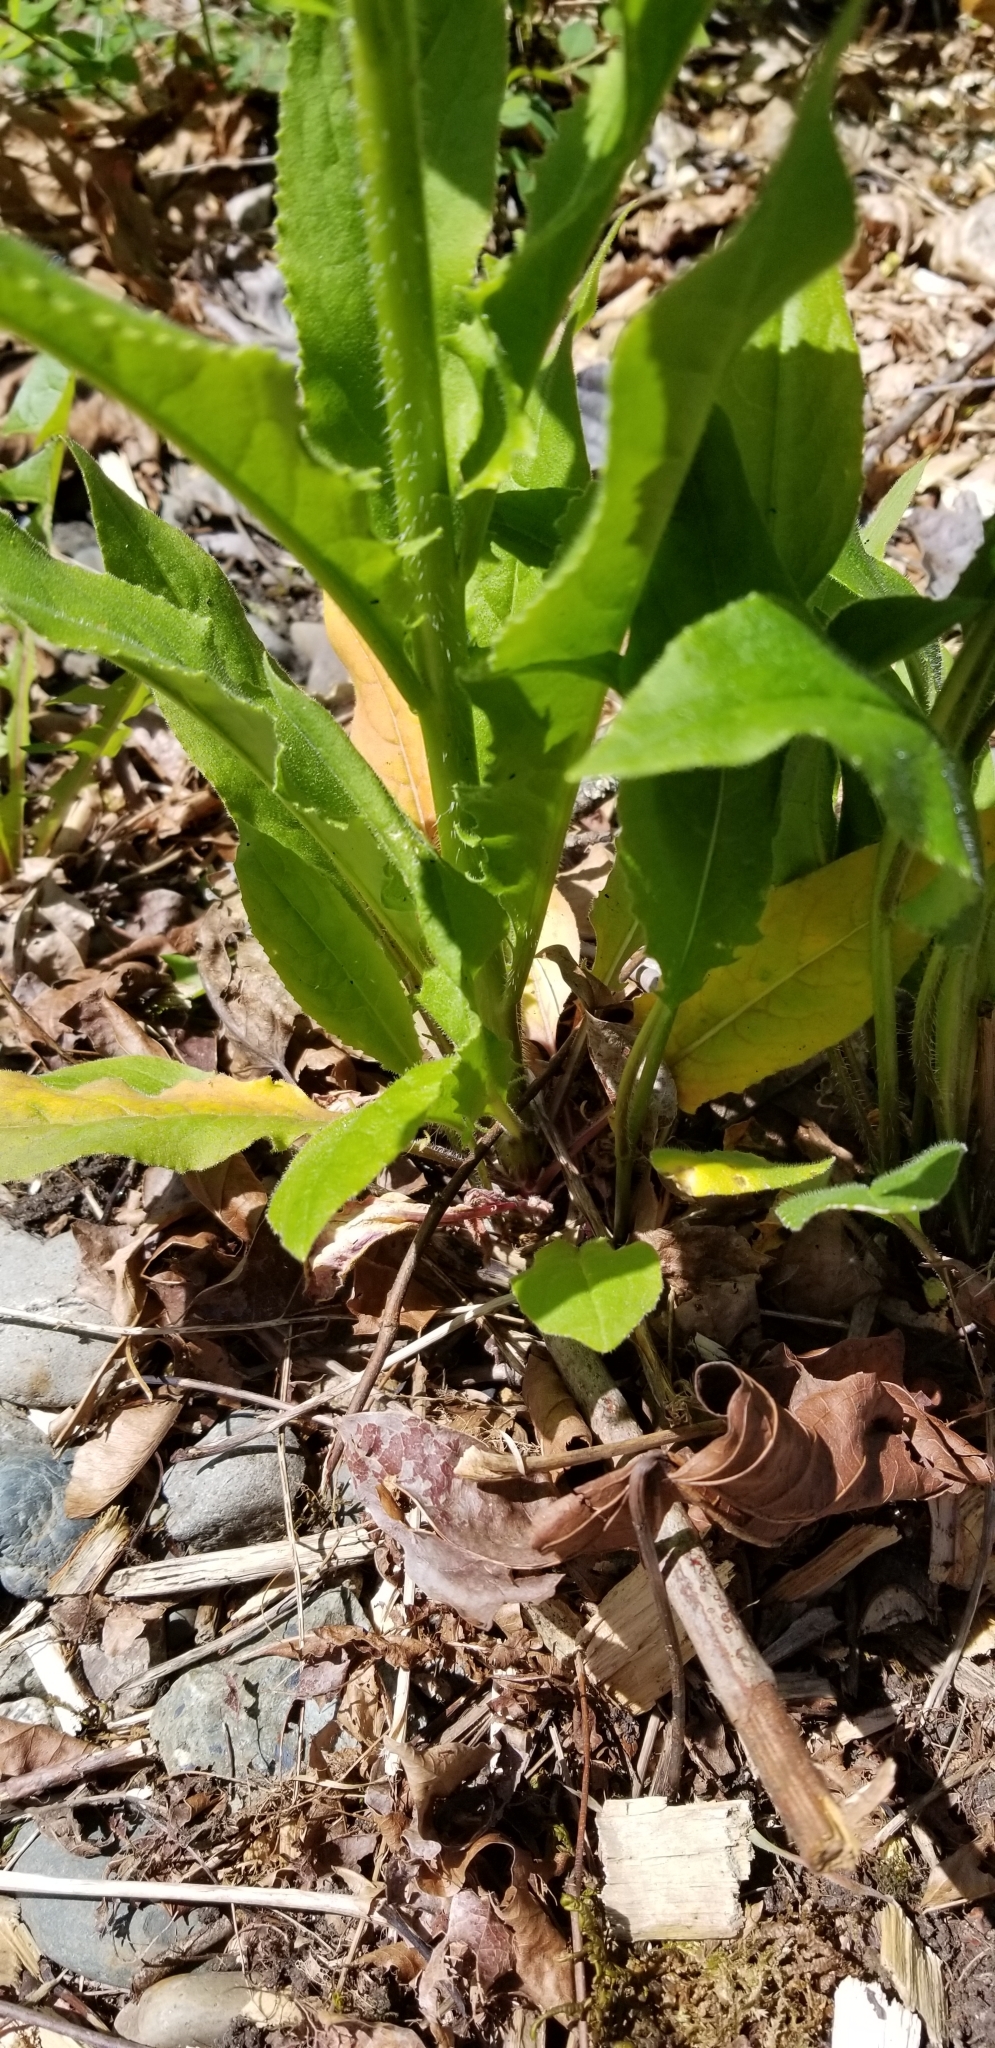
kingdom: Plantae
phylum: Tracheophyta
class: Magnoliopsida
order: Brassicales
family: Brassicaceae
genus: Hesperis
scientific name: Hesperis matronalis
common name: Dame's-violet
